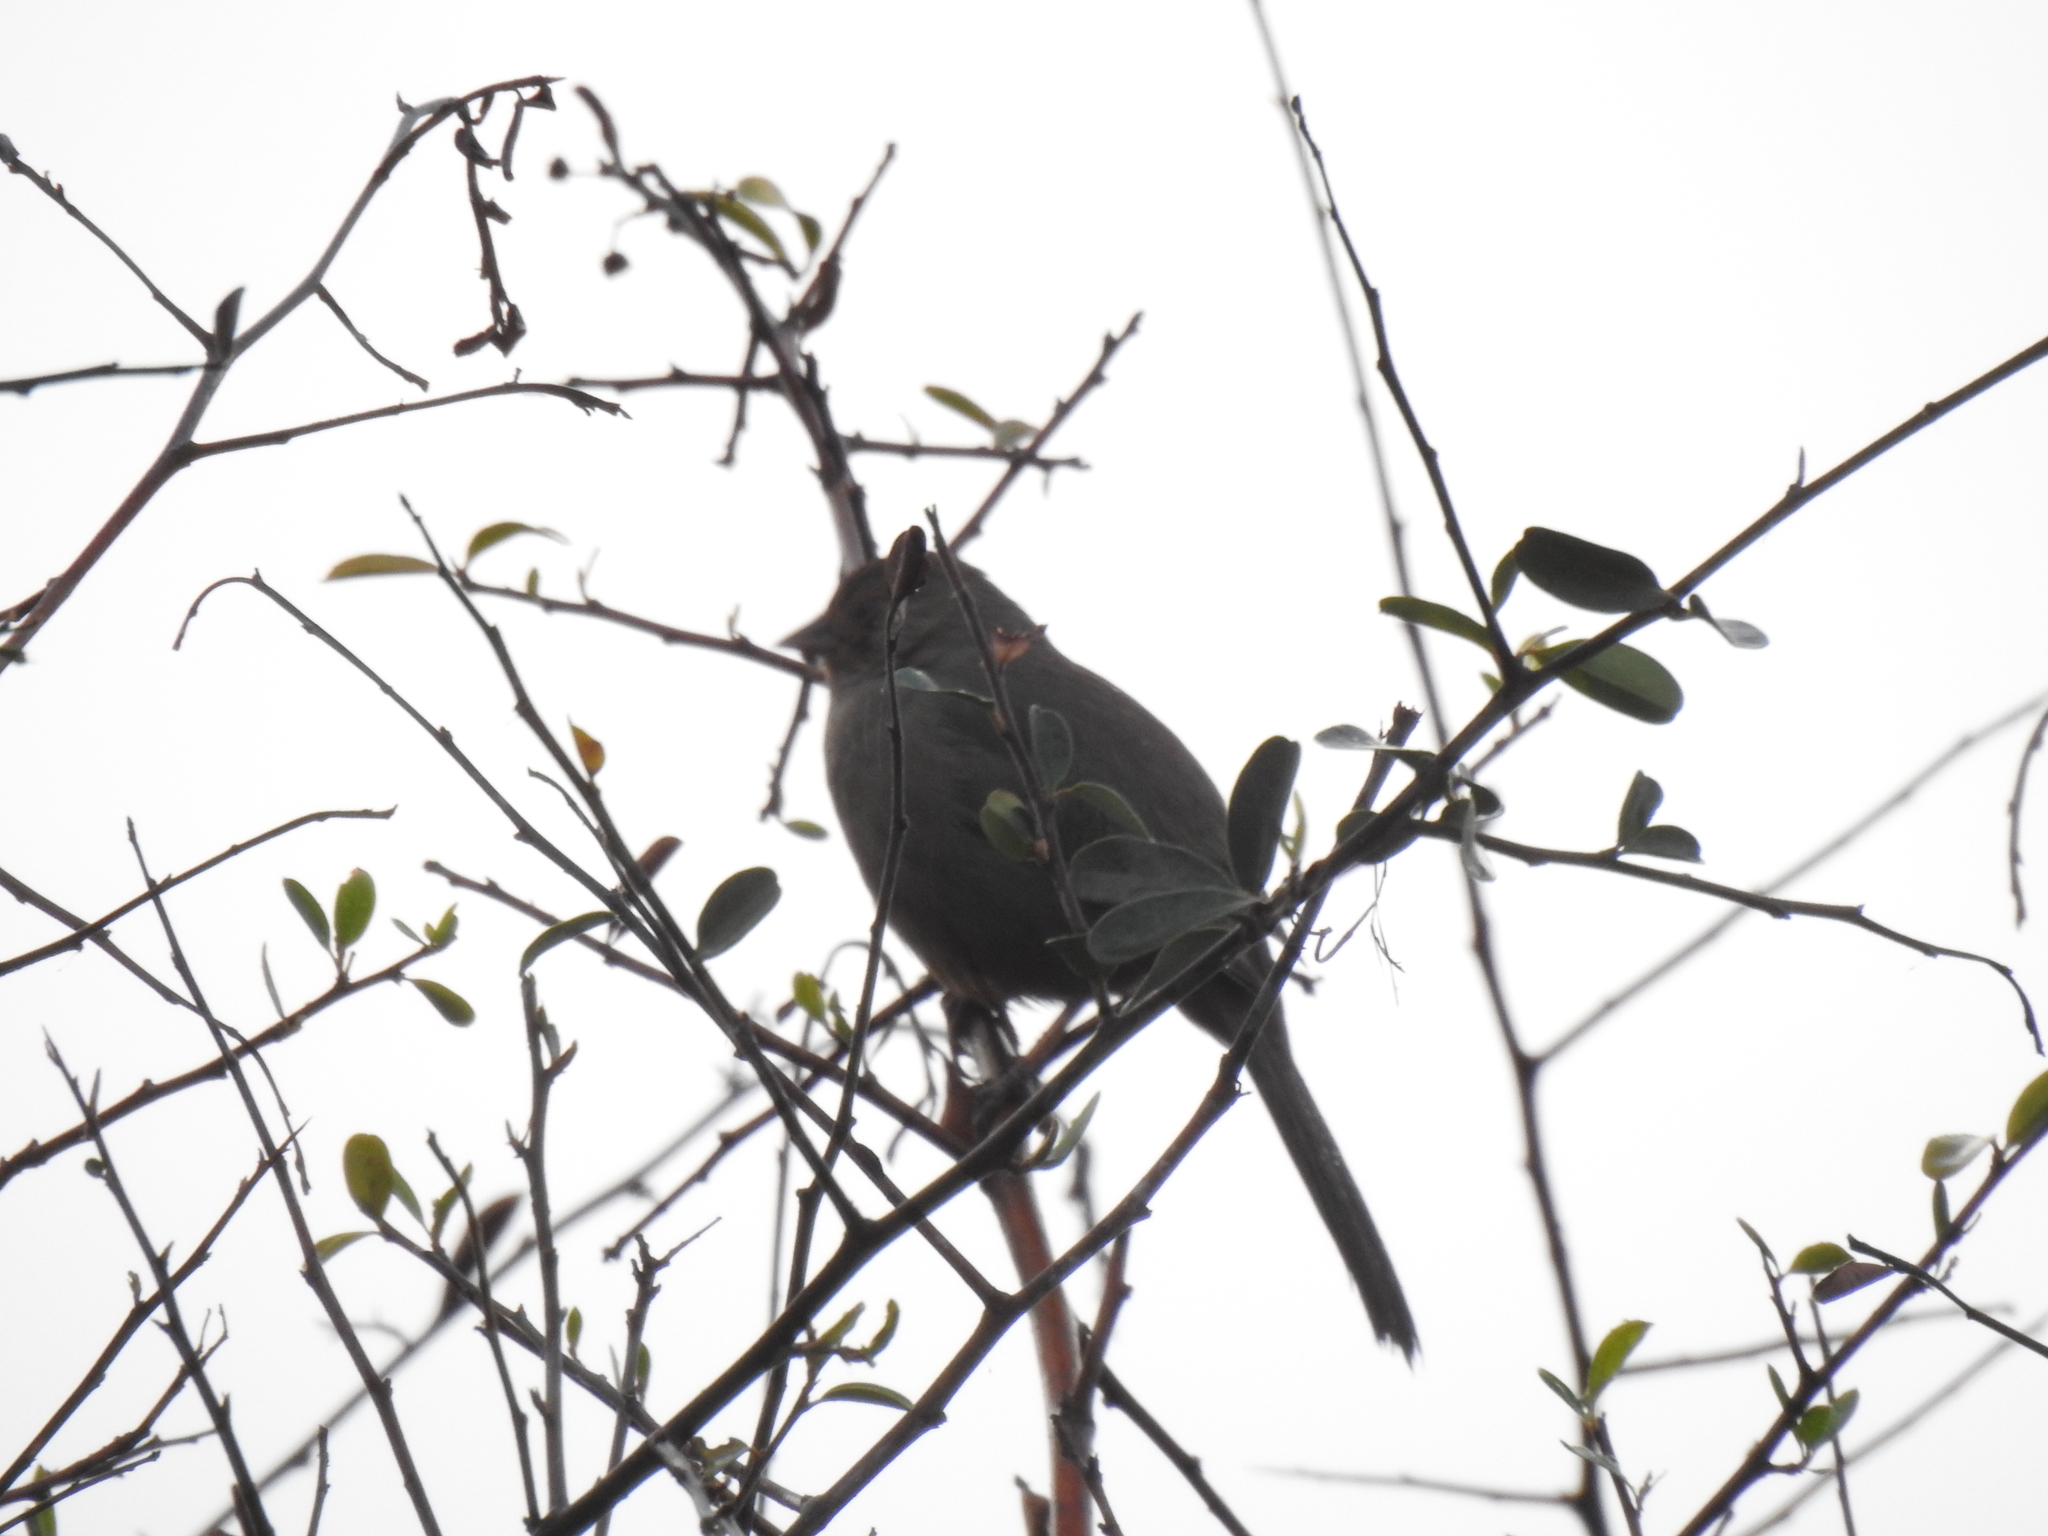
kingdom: Animalia
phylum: Chordata
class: Aves
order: Passeriformes
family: Passerellidae
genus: Melozone
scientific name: Melozone crissalis
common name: California towhee
